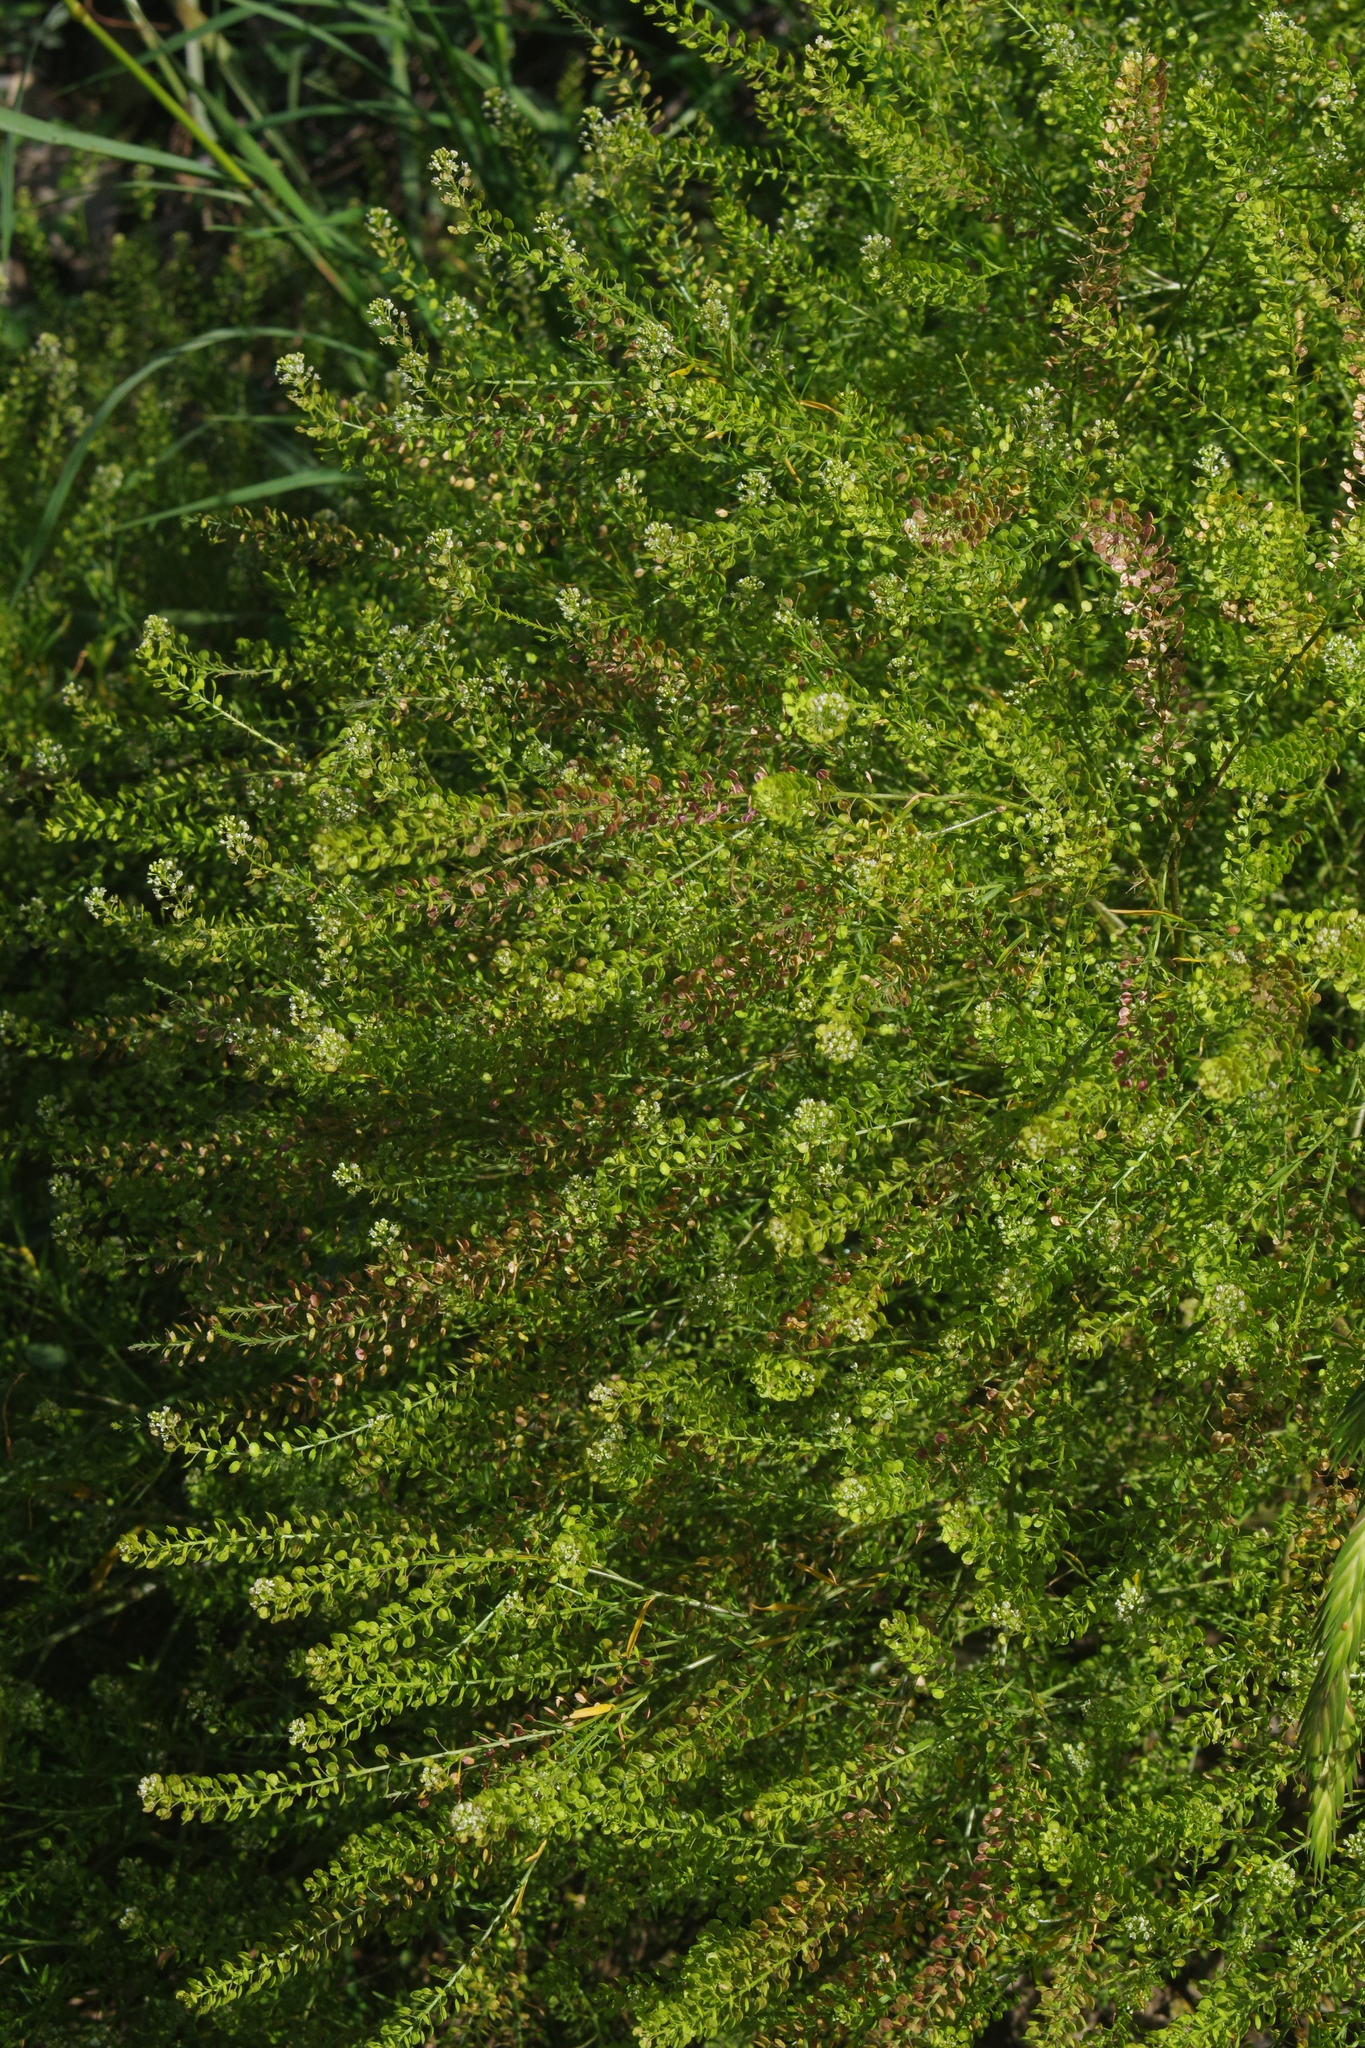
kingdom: Plantae
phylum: Tracheophyta
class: Magnoliopsida
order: Brassicales
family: Brassicaceae
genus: Lepidium
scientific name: Lepidium virginicum
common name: Least pepperwort
